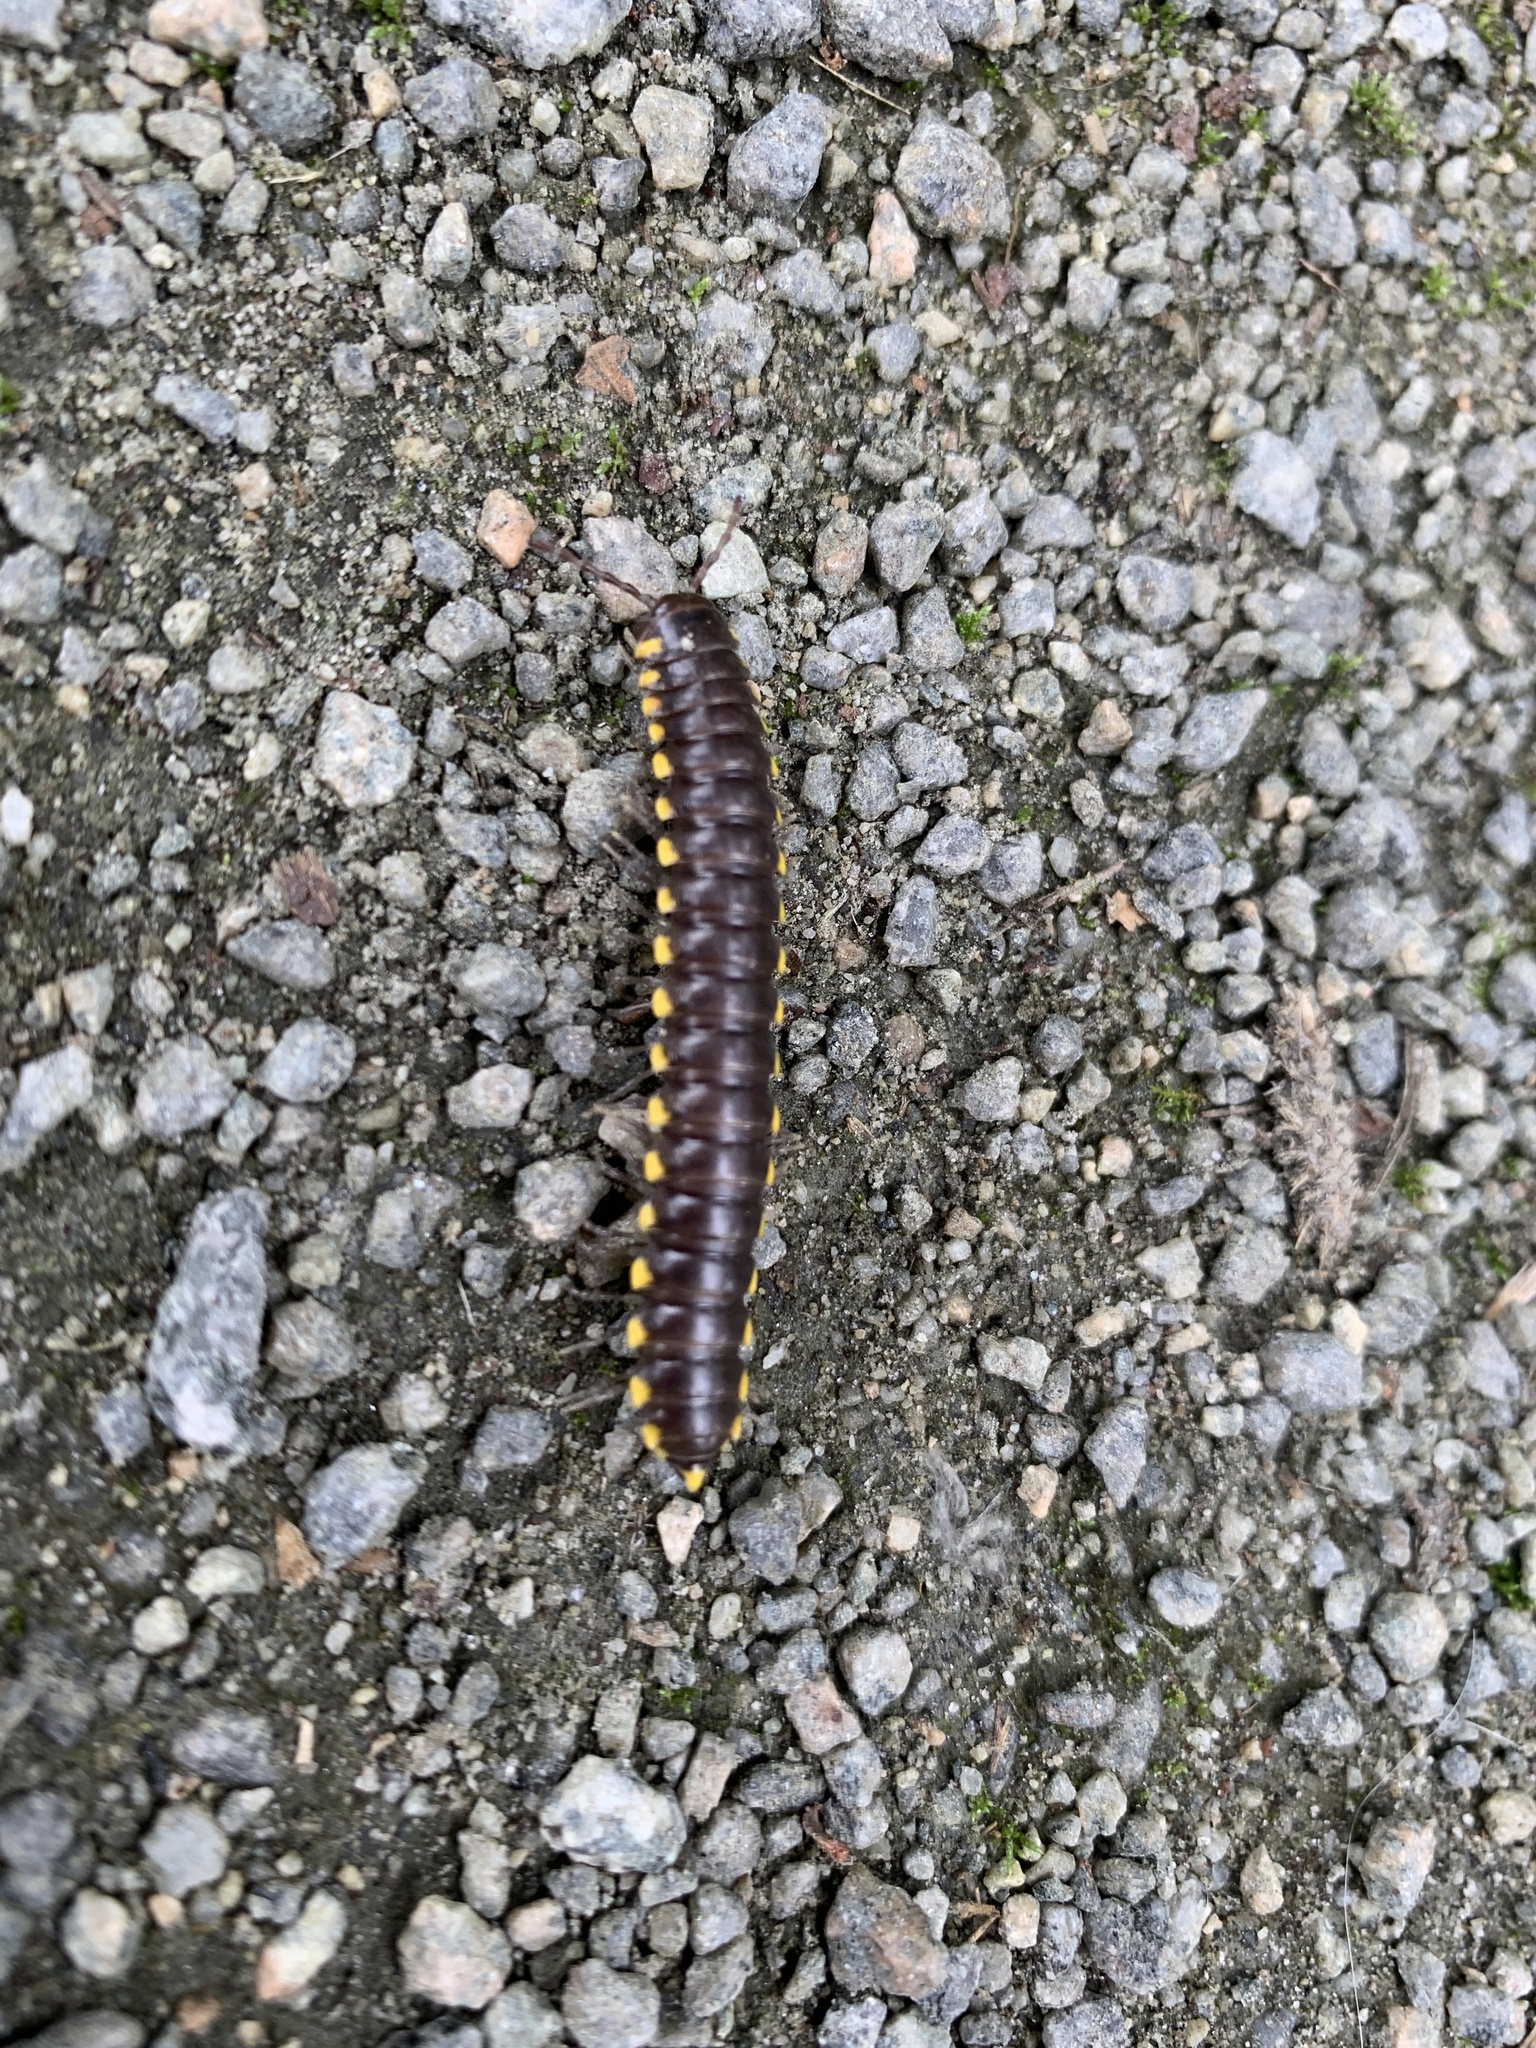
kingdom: Animalia
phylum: Arthropoda
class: Diplopoda
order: Polydesmida
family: Xystodesmidae
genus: Harpaphe
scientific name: Harpaphe haydeniana
